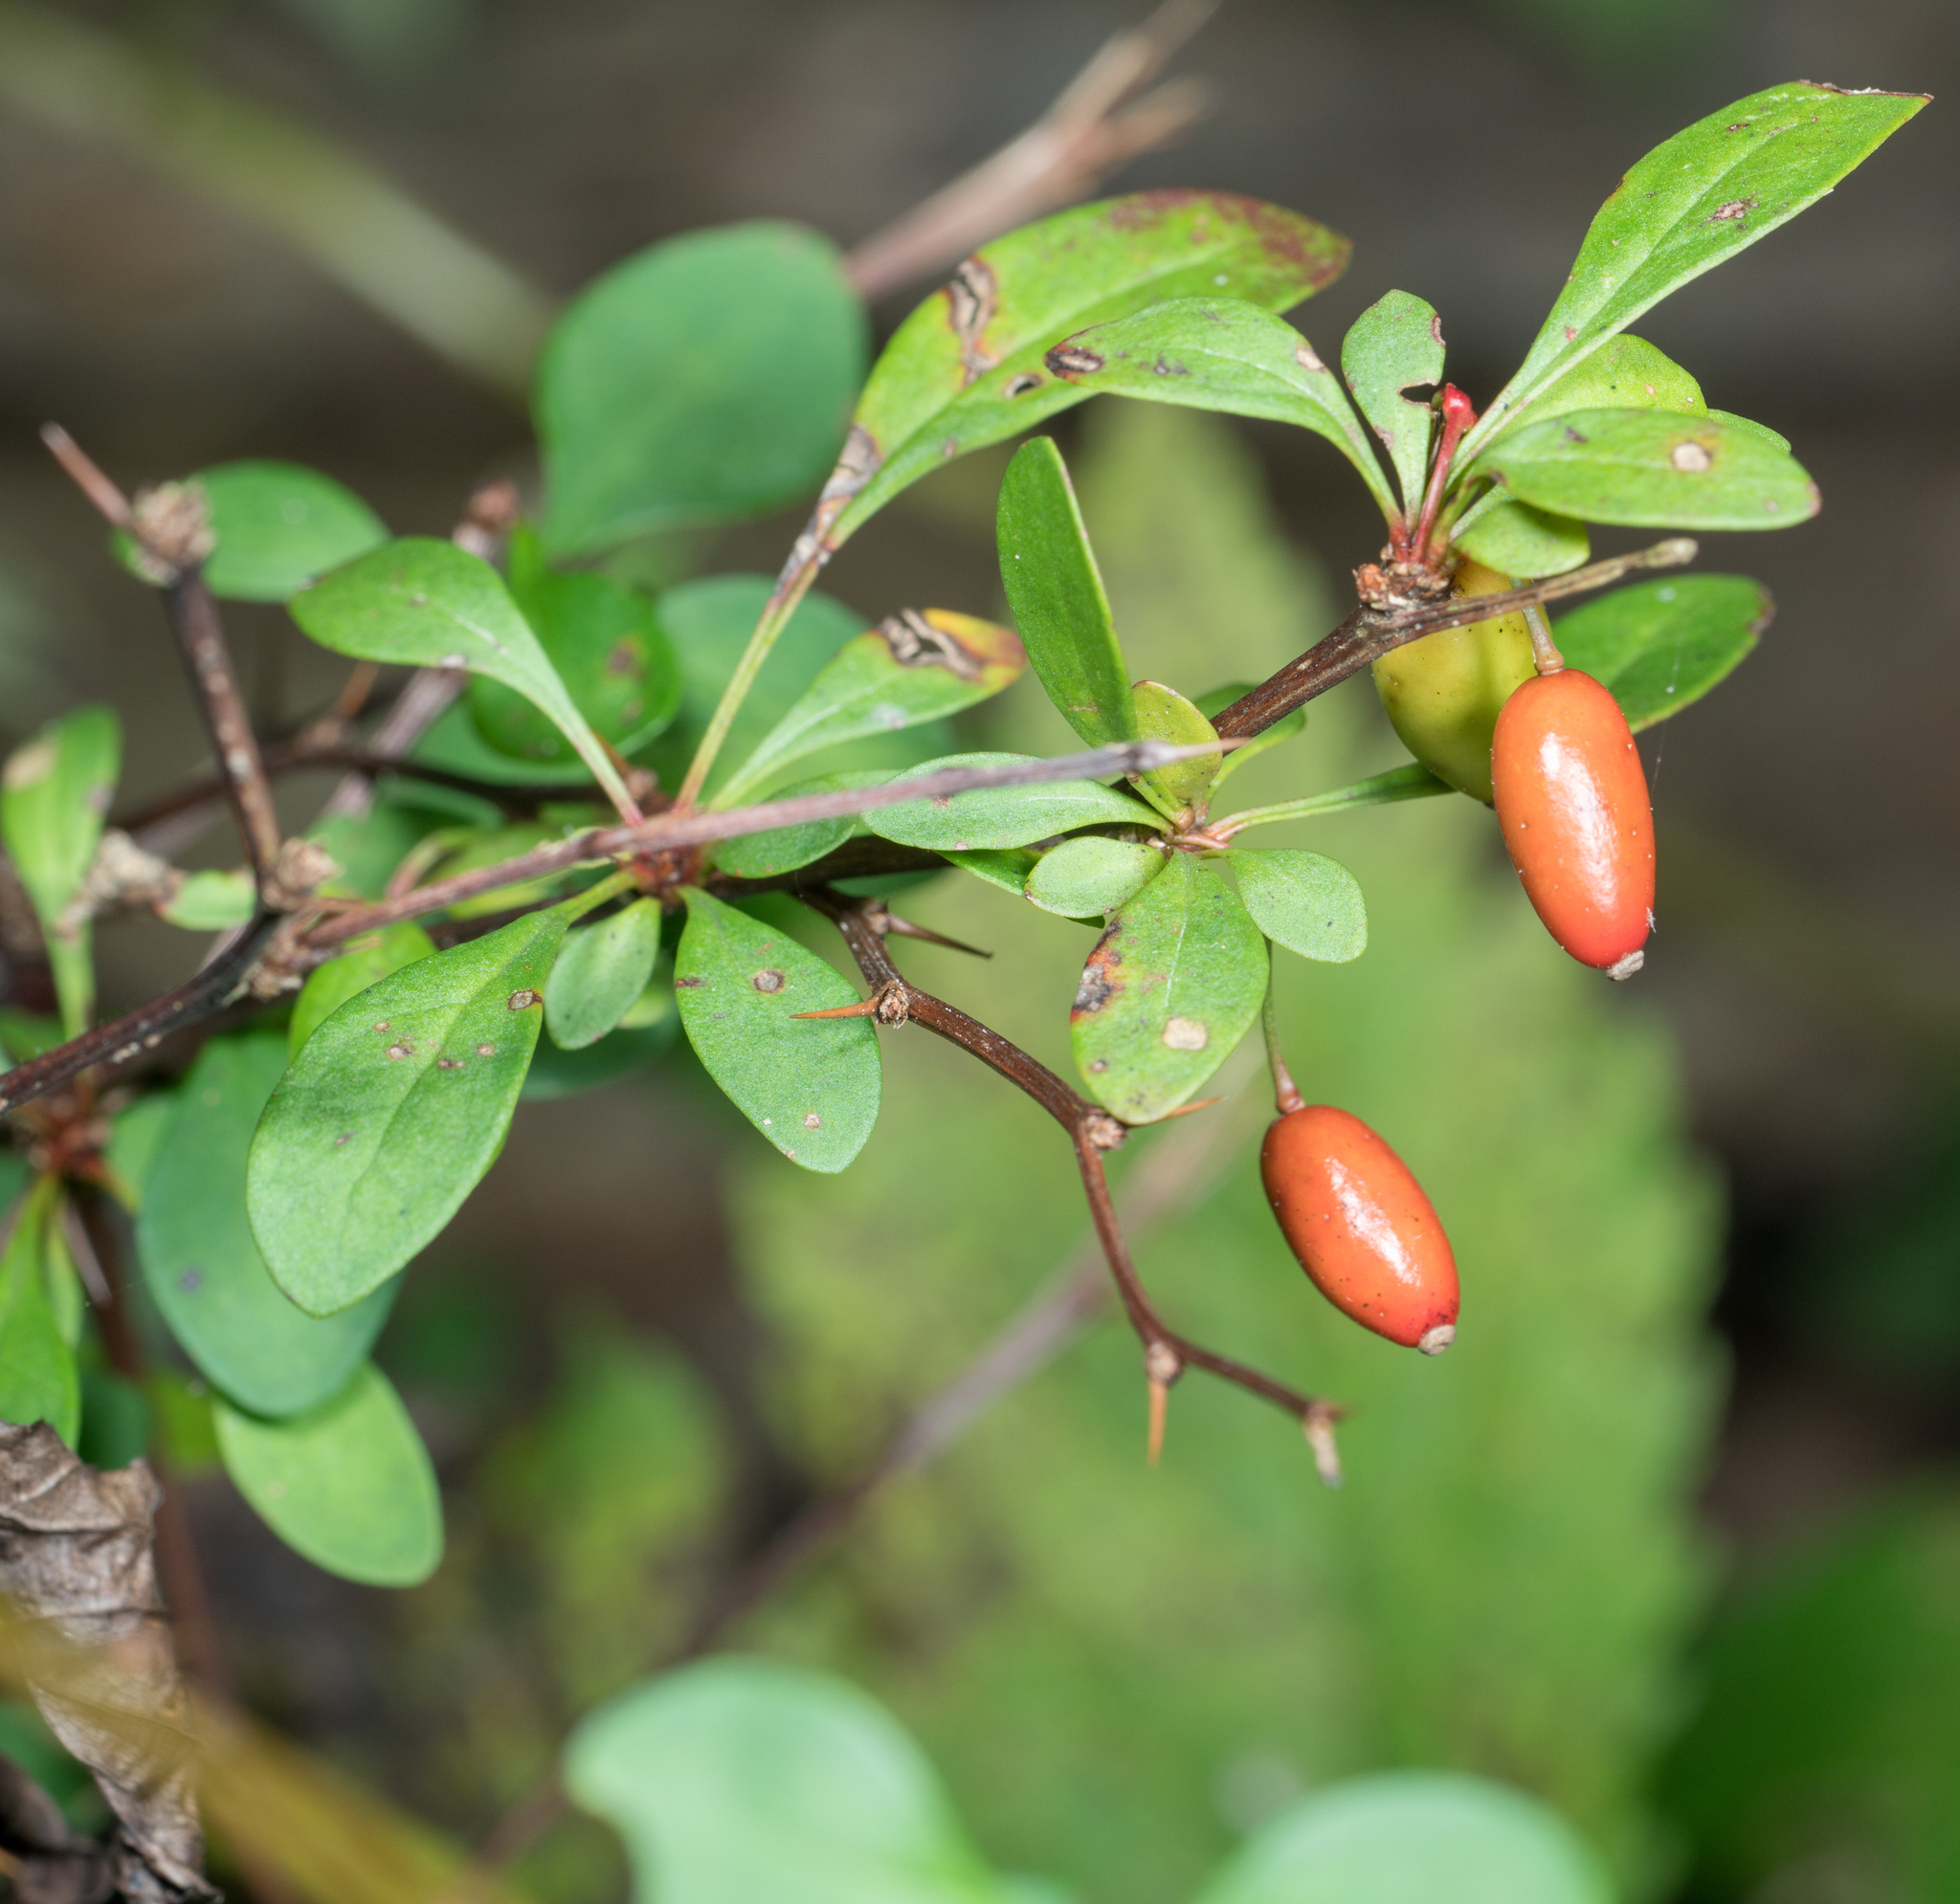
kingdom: Plantae
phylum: Tracheophyta
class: Magnoliopsida
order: Ranunculales
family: Berberidaceae
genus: Berberis
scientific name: Berberis thunbergii
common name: Japanese barberry
